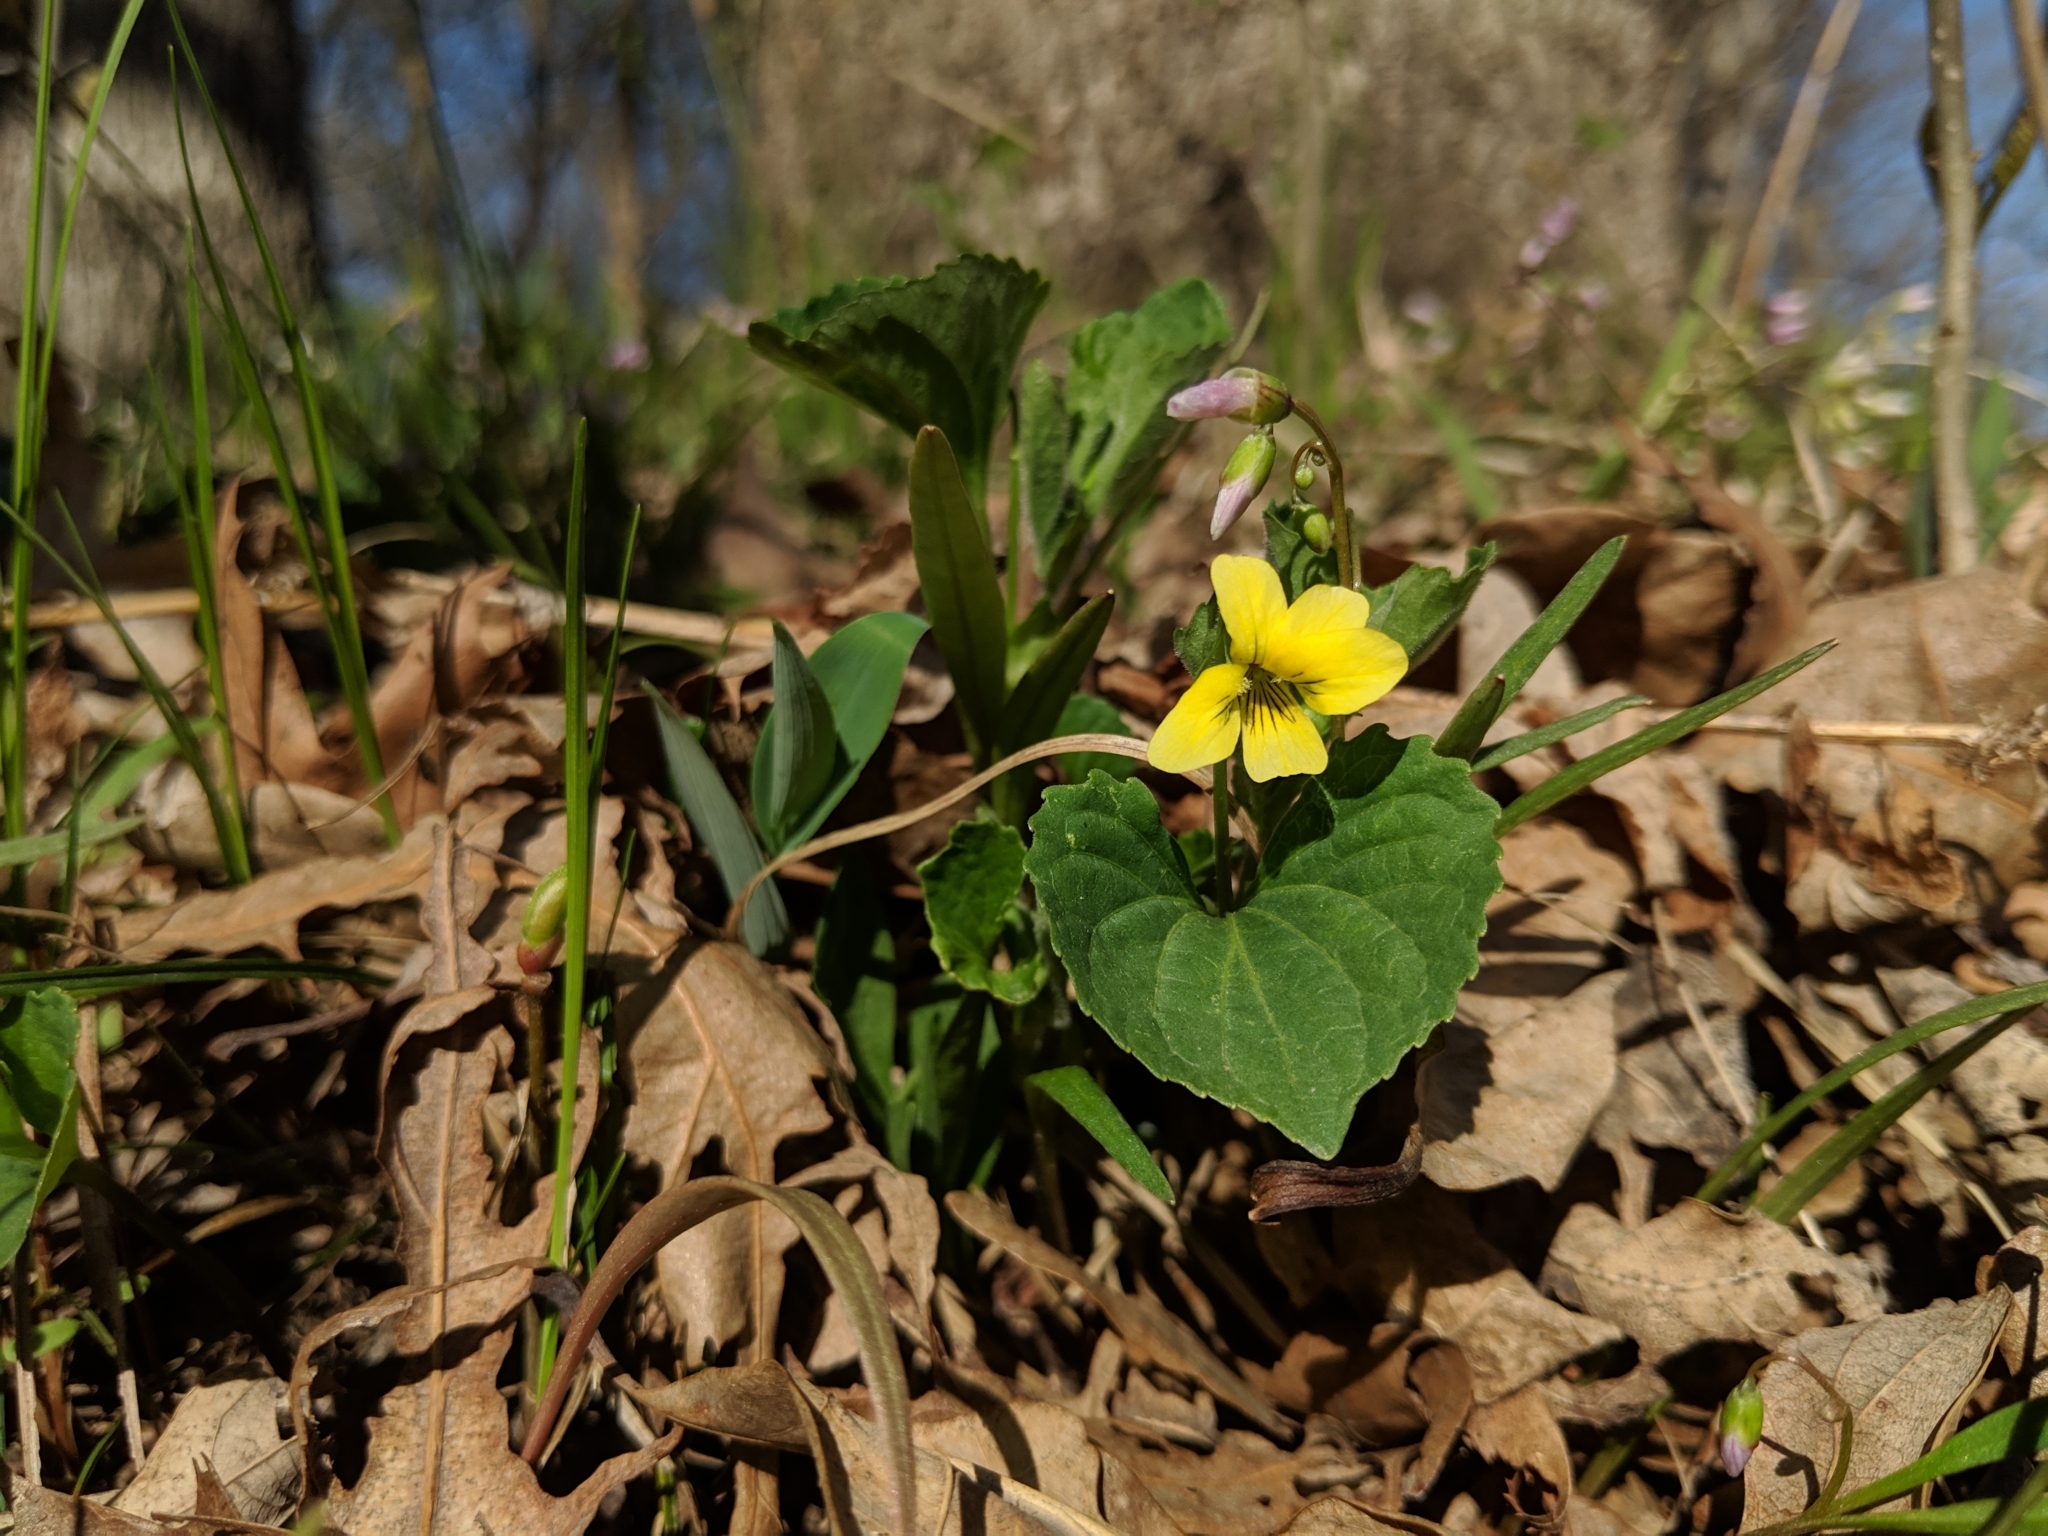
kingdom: Plantae
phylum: Tracheophyta
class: Magnoliopsida
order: Malpighiales
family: Violaceae
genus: Viola
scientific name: Viola eriocarpa
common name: Smooth yellow violet
